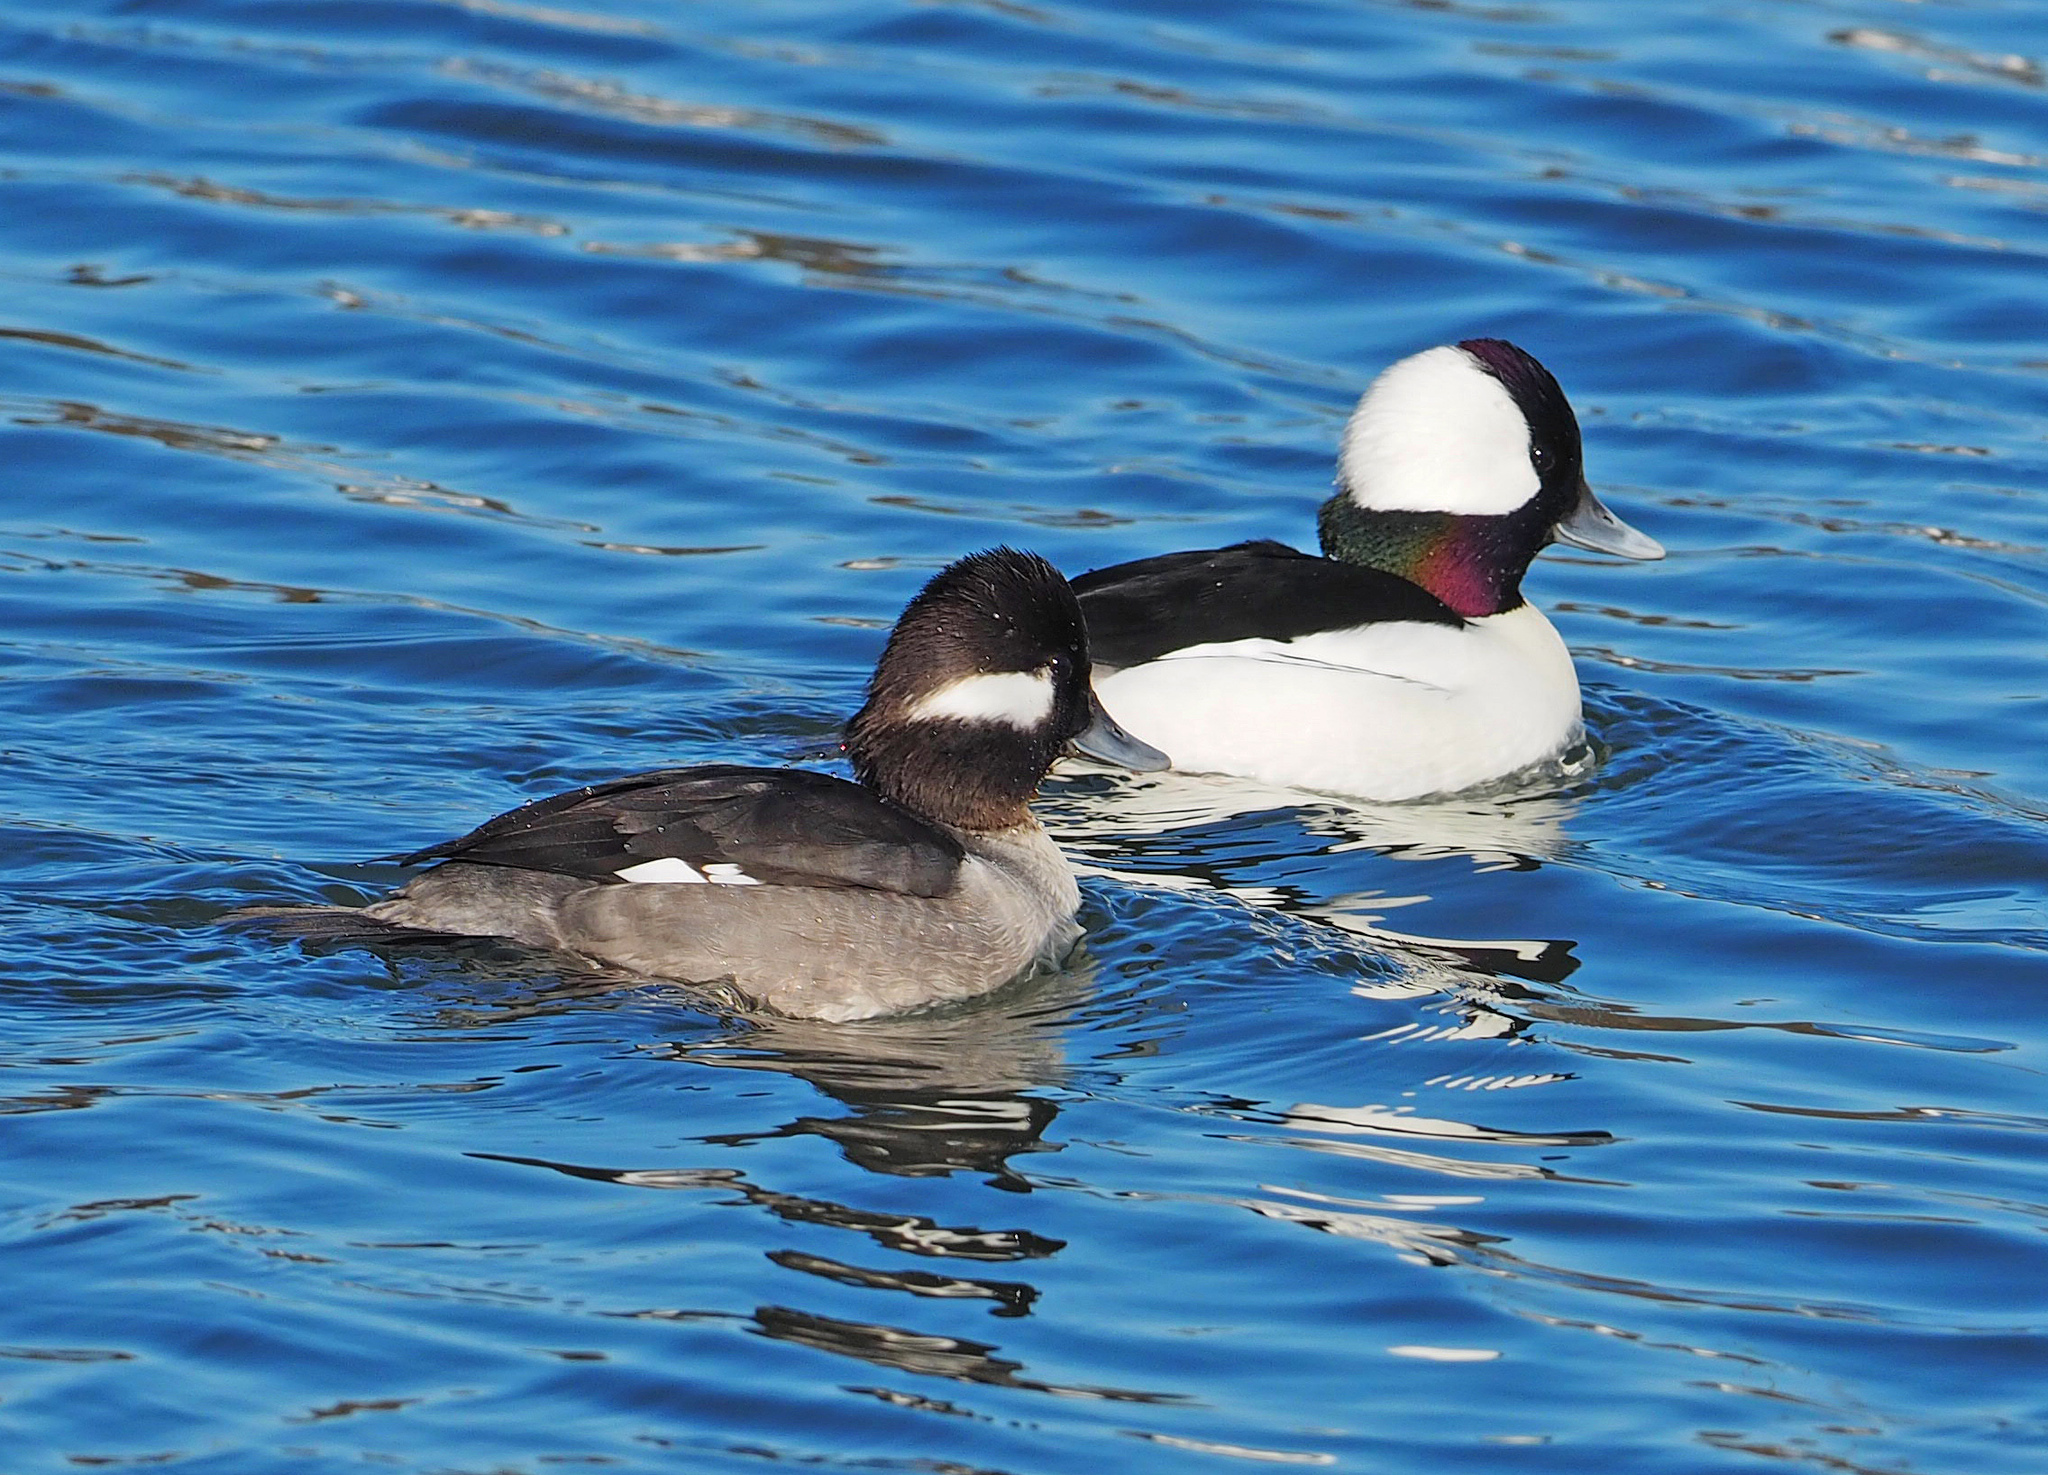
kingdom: Animalia
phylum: Chordata
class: Aves
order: Anseriformes
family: Anatidae
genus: Bucephala
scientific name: Bucephala albeola
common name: Bufflehead
